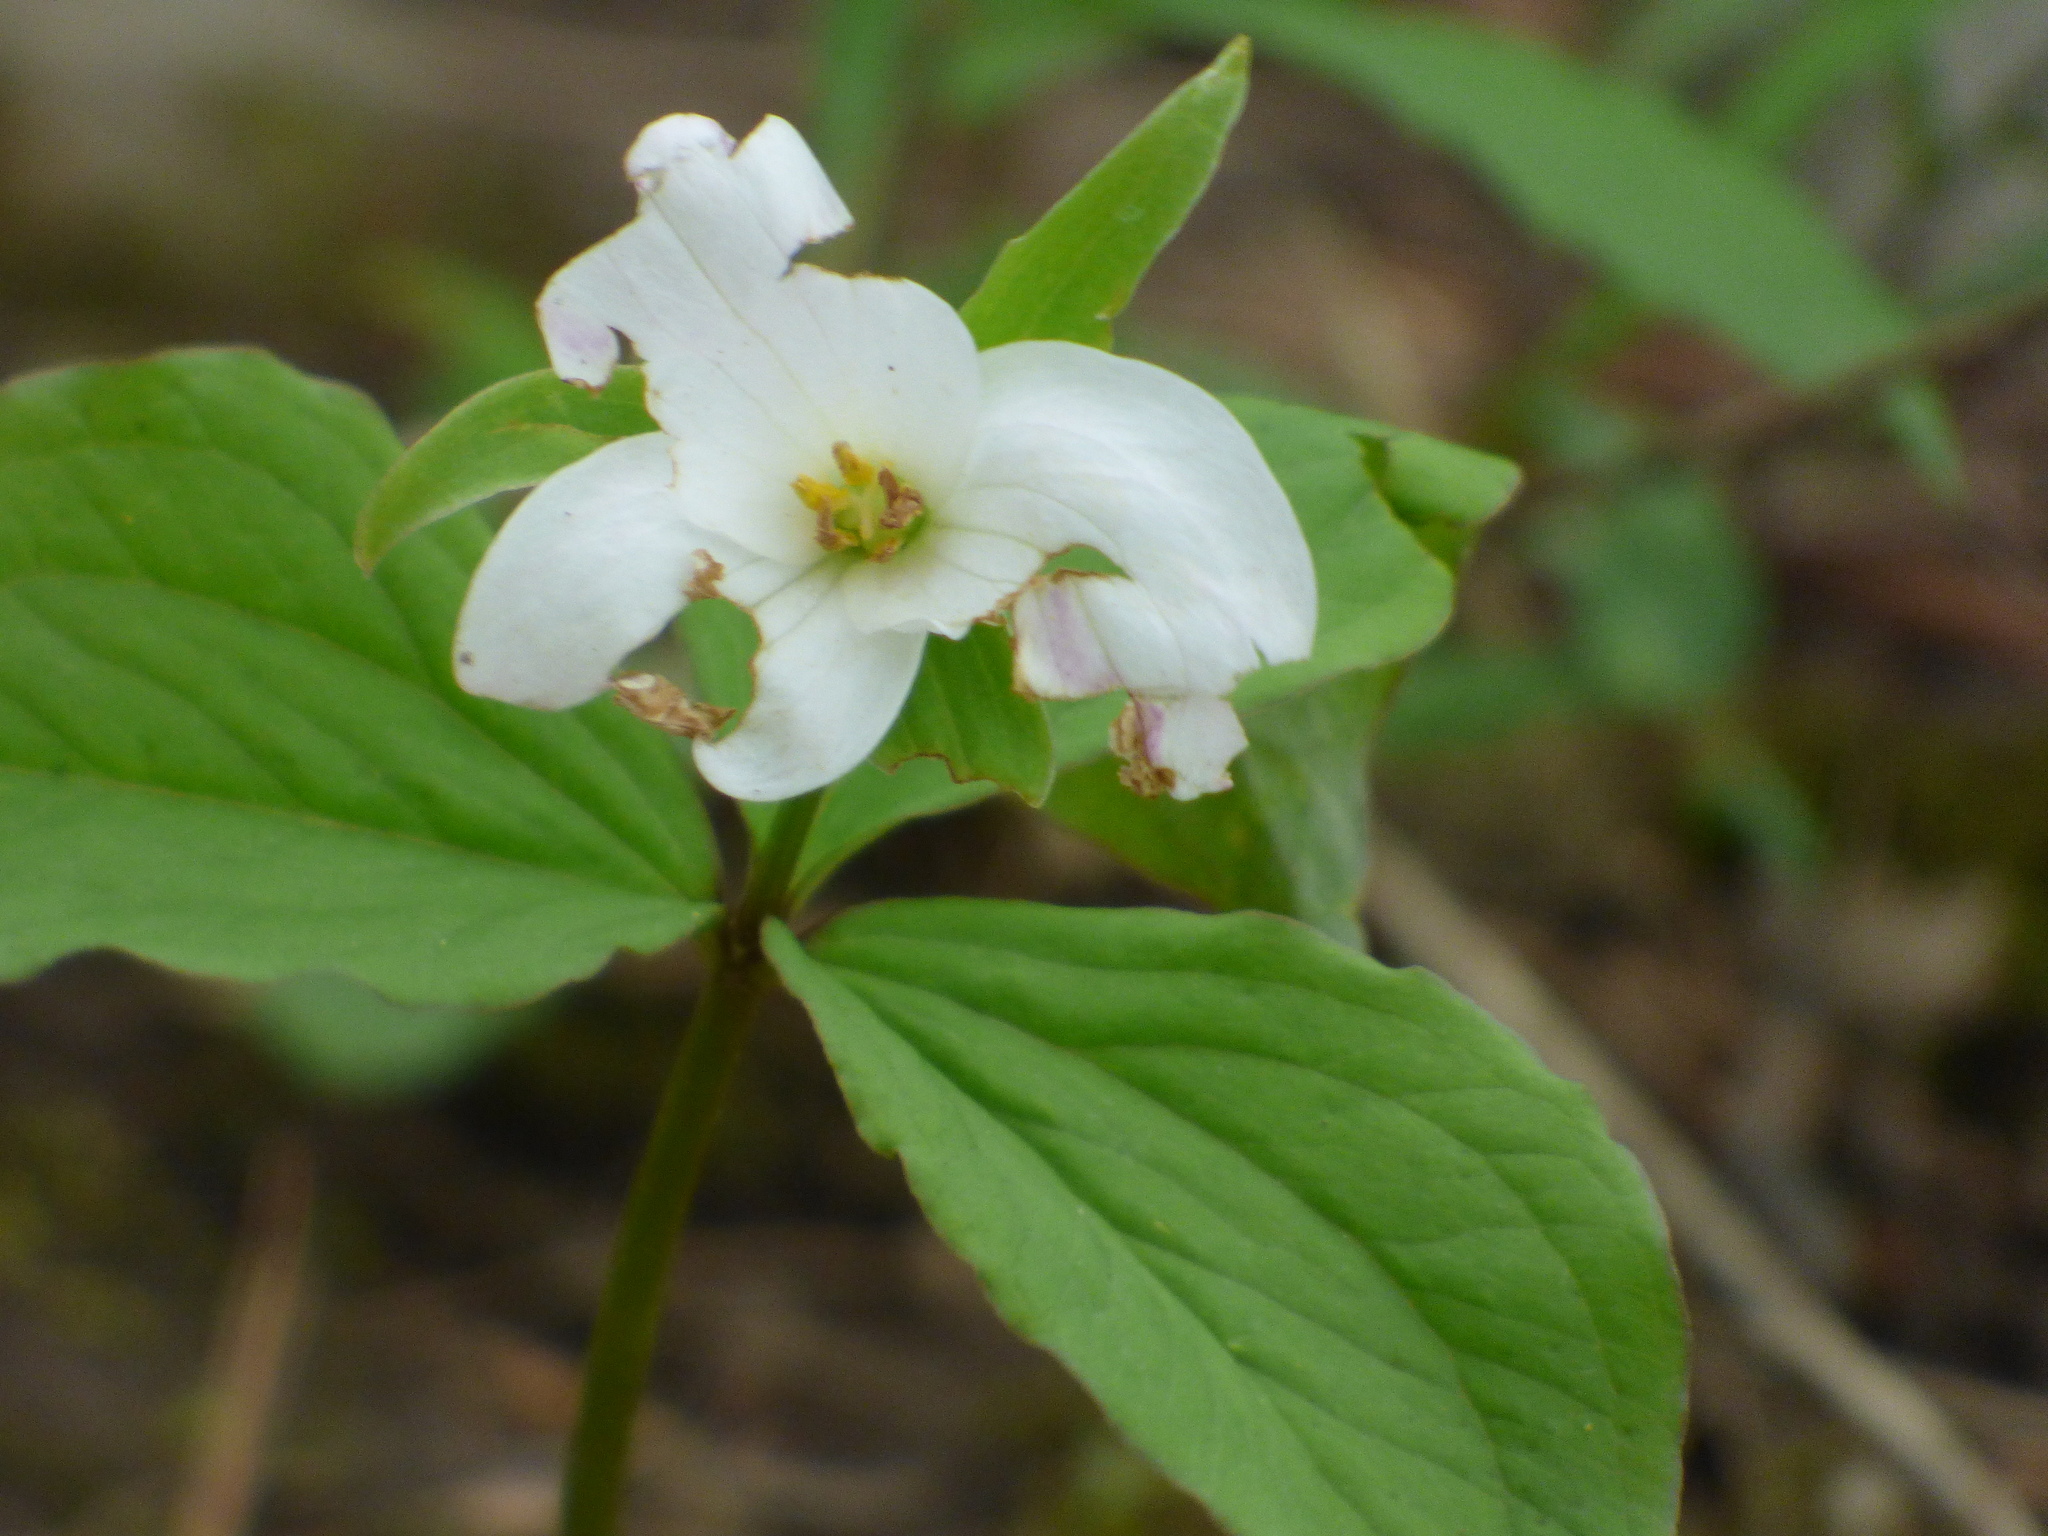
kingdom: Plantae
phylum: Tracheophyta
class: Liliopsida
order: Liliales
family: Melanthiaceae
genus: Trillium
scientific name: Trillium grandiflorum
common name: Great white trillium
